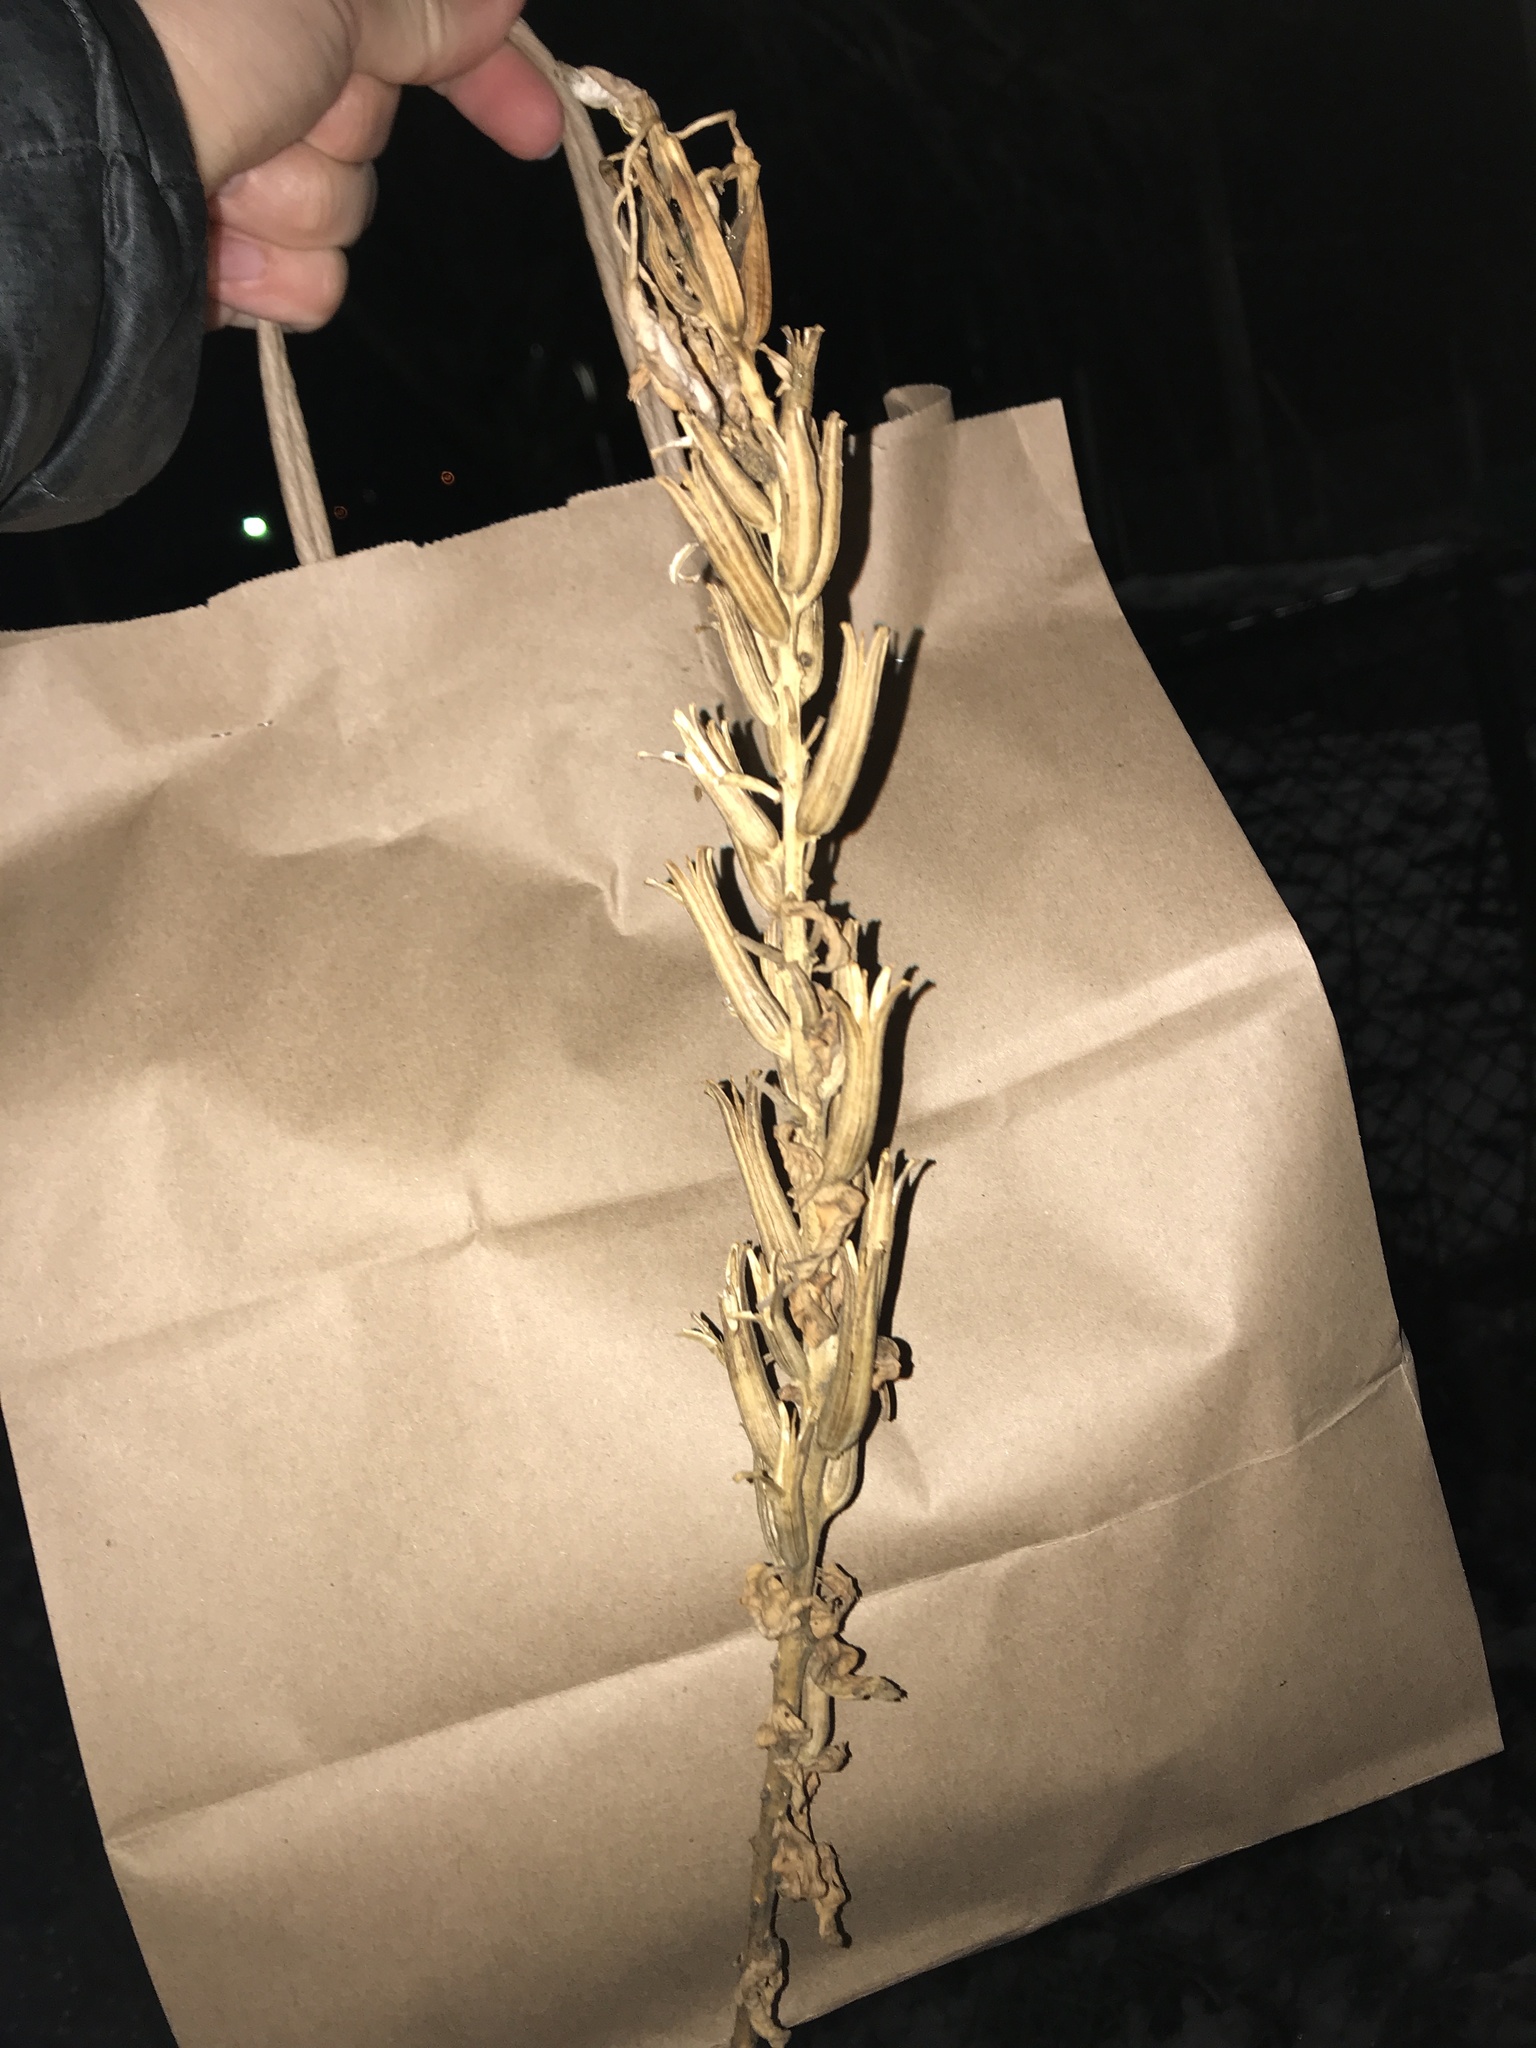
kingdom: Plantae
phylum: Tracheophyta
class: Magnoliopsida
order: Myrtales
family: Onagraceae
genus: Oenothera
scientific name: Oenothera biennis
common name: Common evening-primrose
